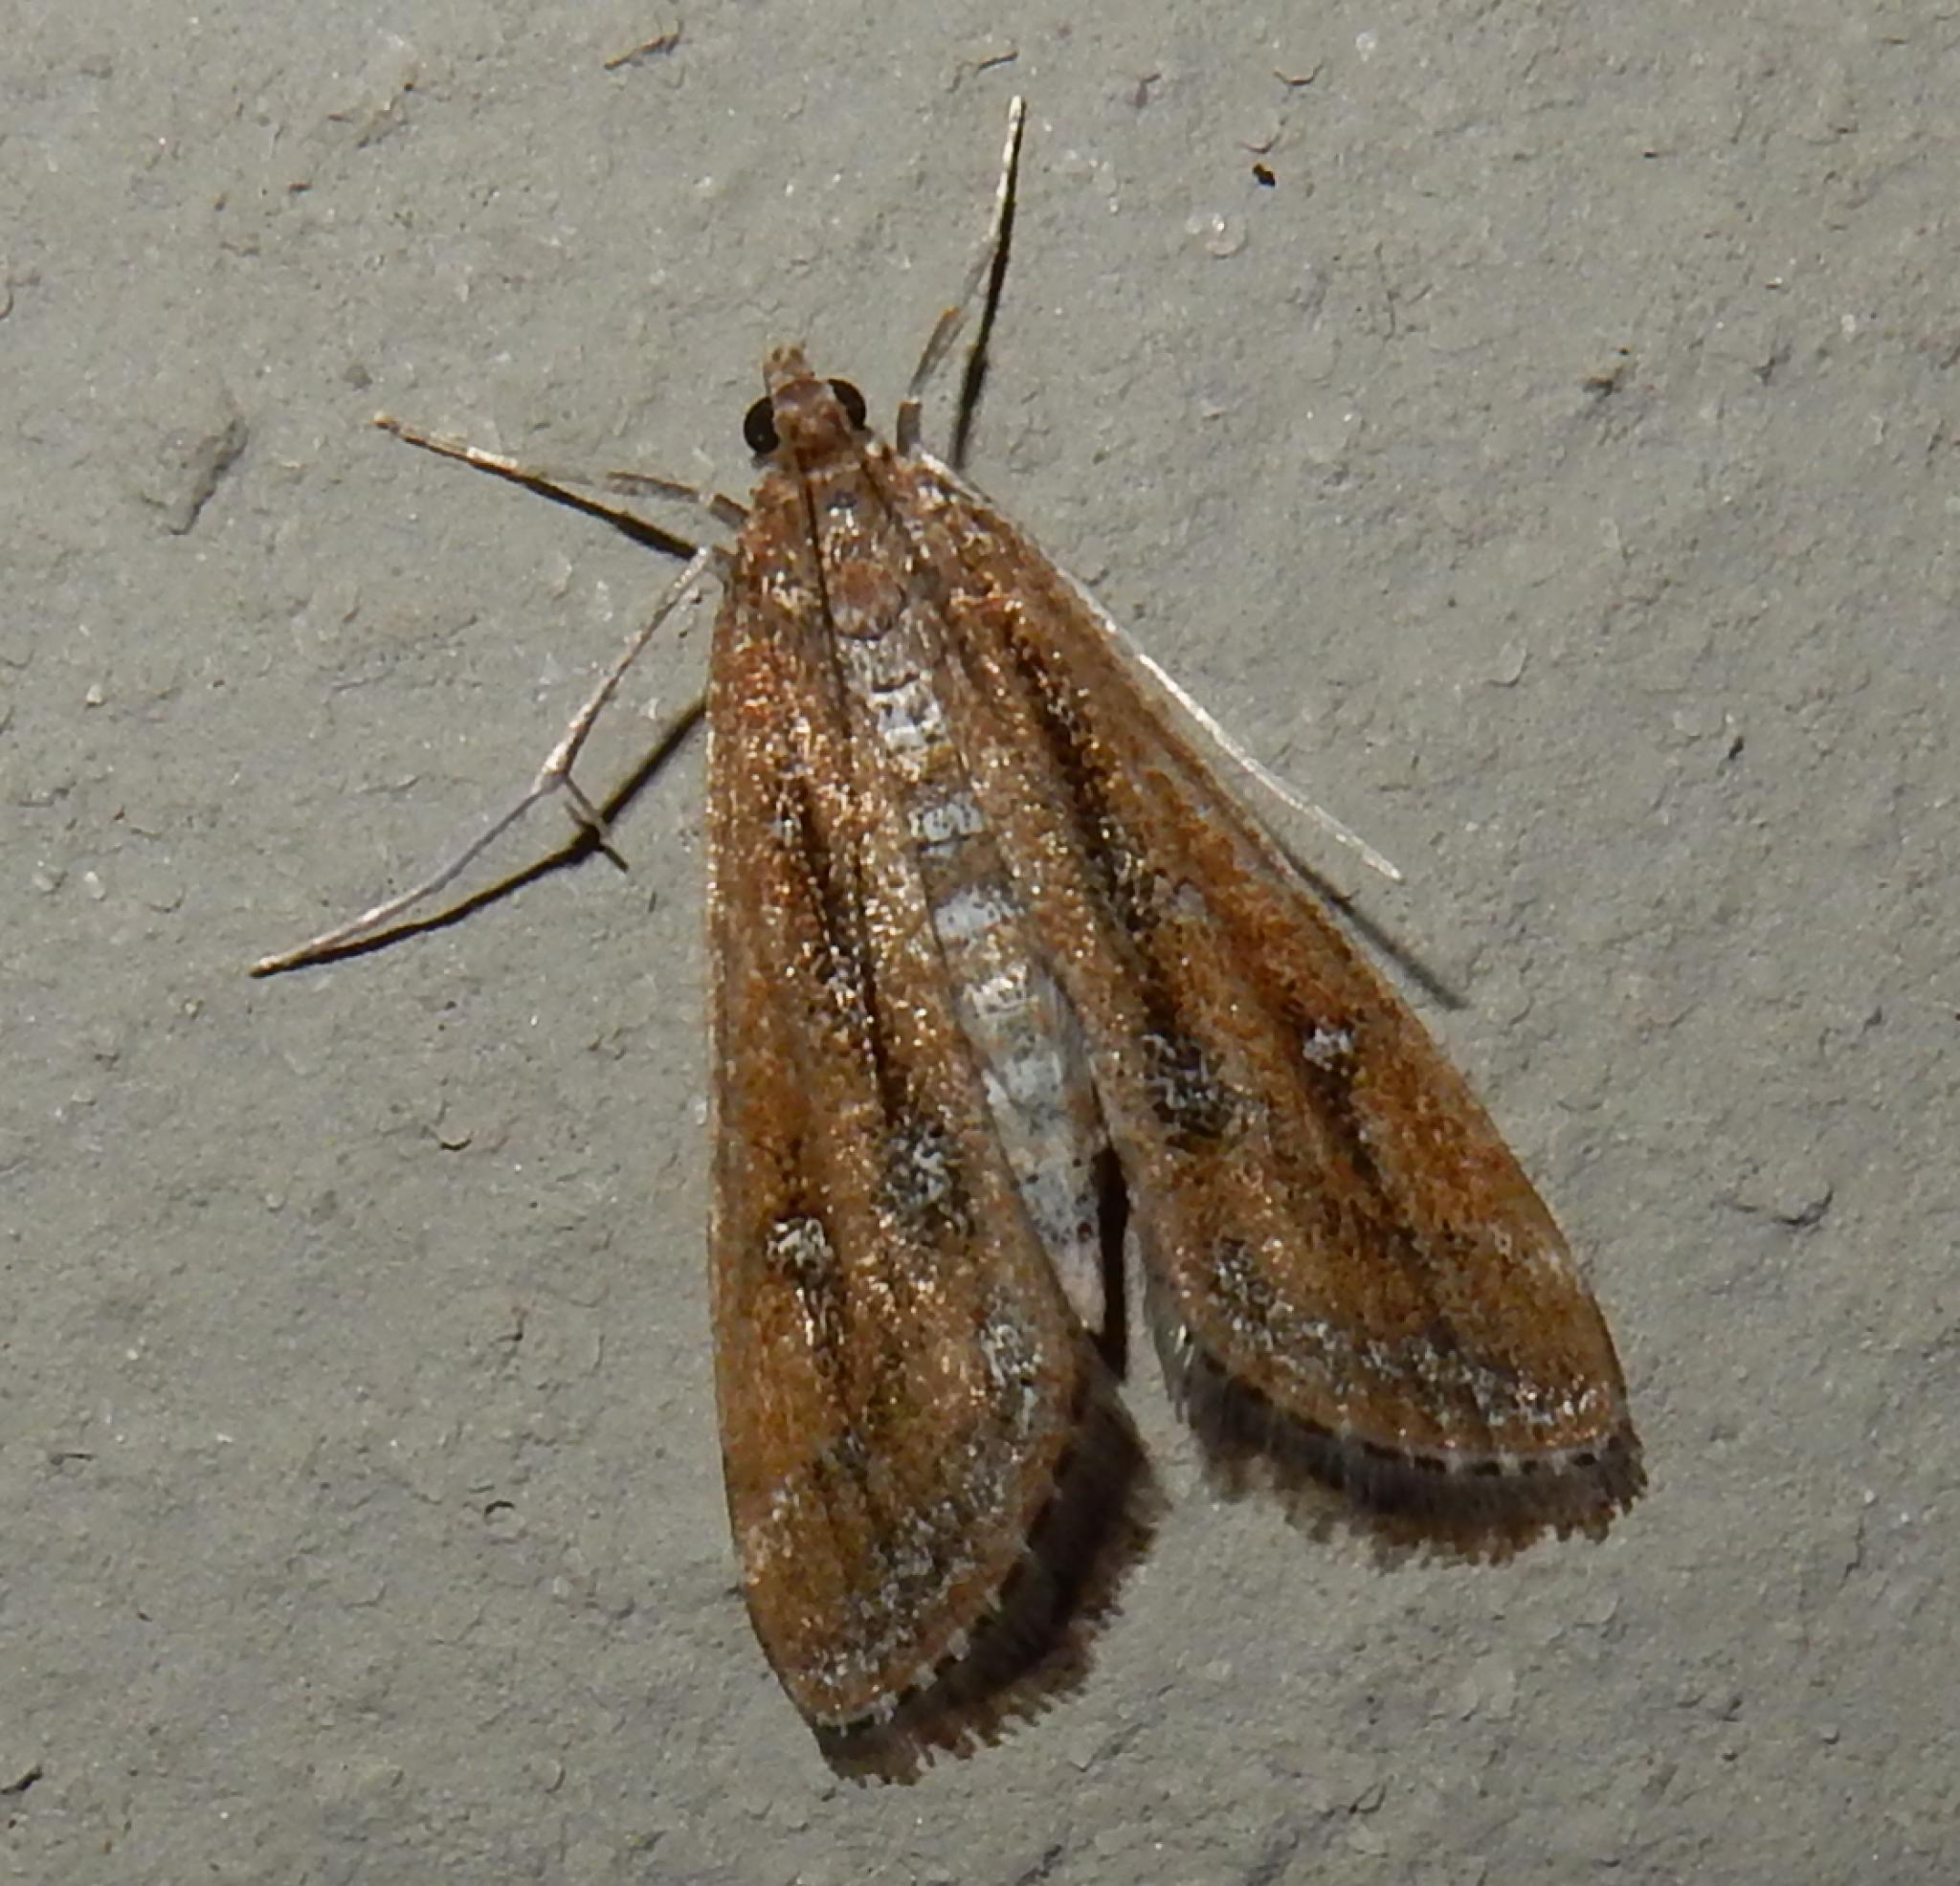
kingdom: Animalia
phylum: Arthropoda
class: Insecta
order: Lepidoptera
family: Crambidae
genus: Parapoynx
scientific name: Parapoynx fluctuosalis
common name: Moth
